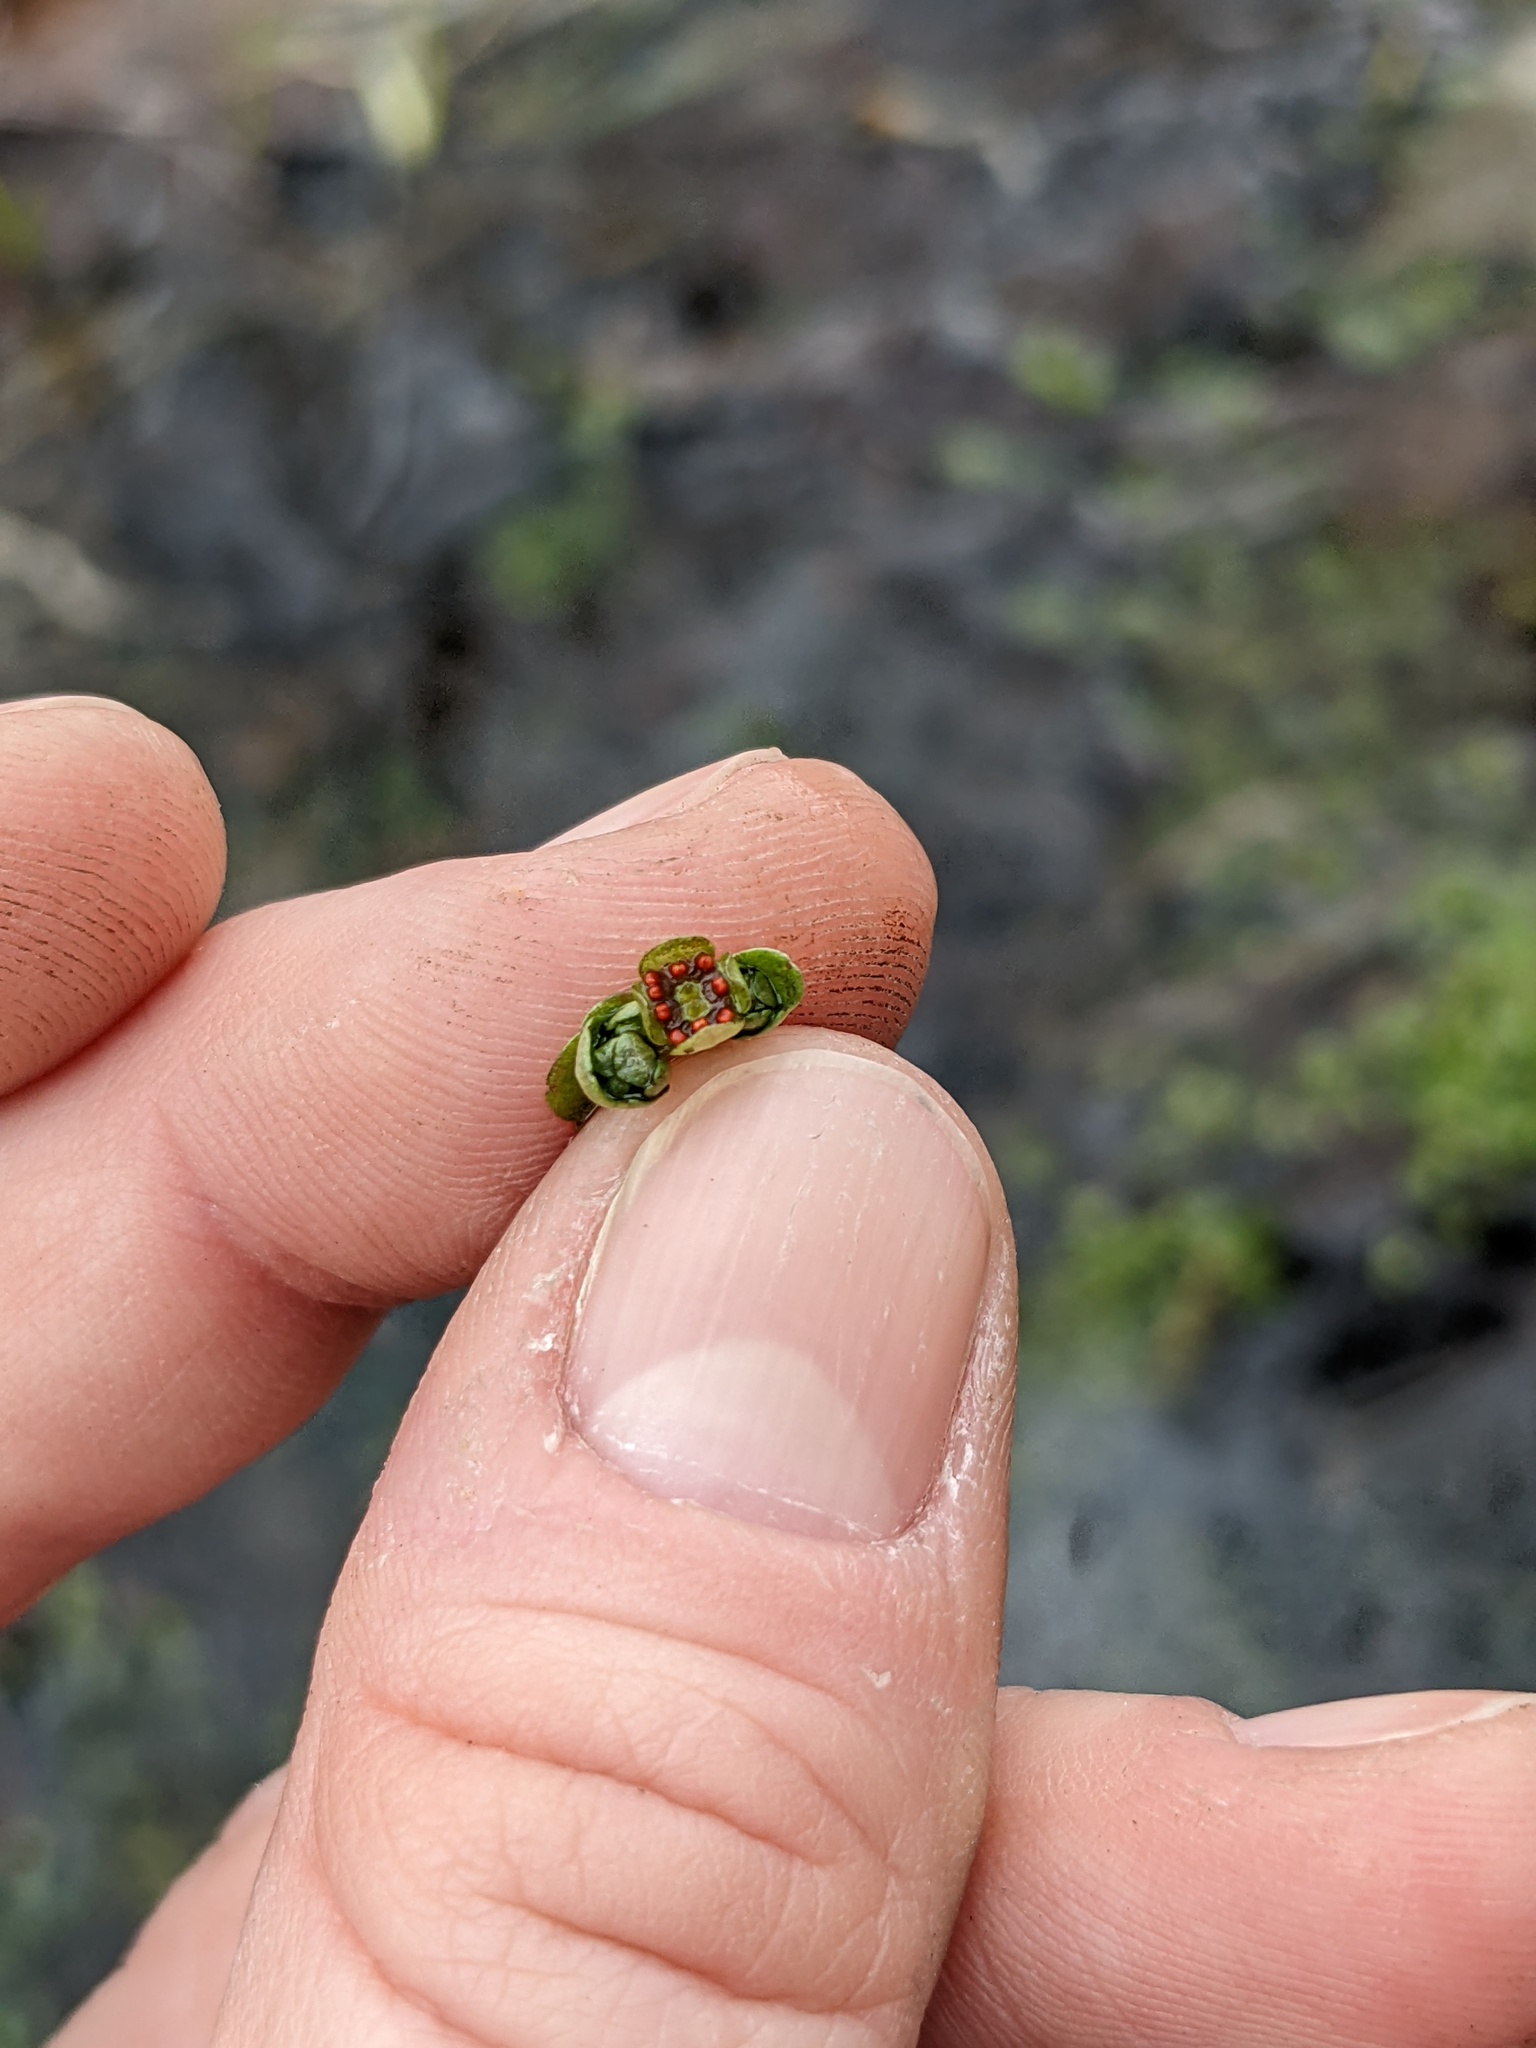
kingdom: Plantae
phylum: Tracheophyta
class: Magnoliopsida
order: Saxifragales
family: Saxifragaceae
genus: Chrysosplenium
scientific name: Chrysosplenium americanum
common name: American golden-saxifrage
